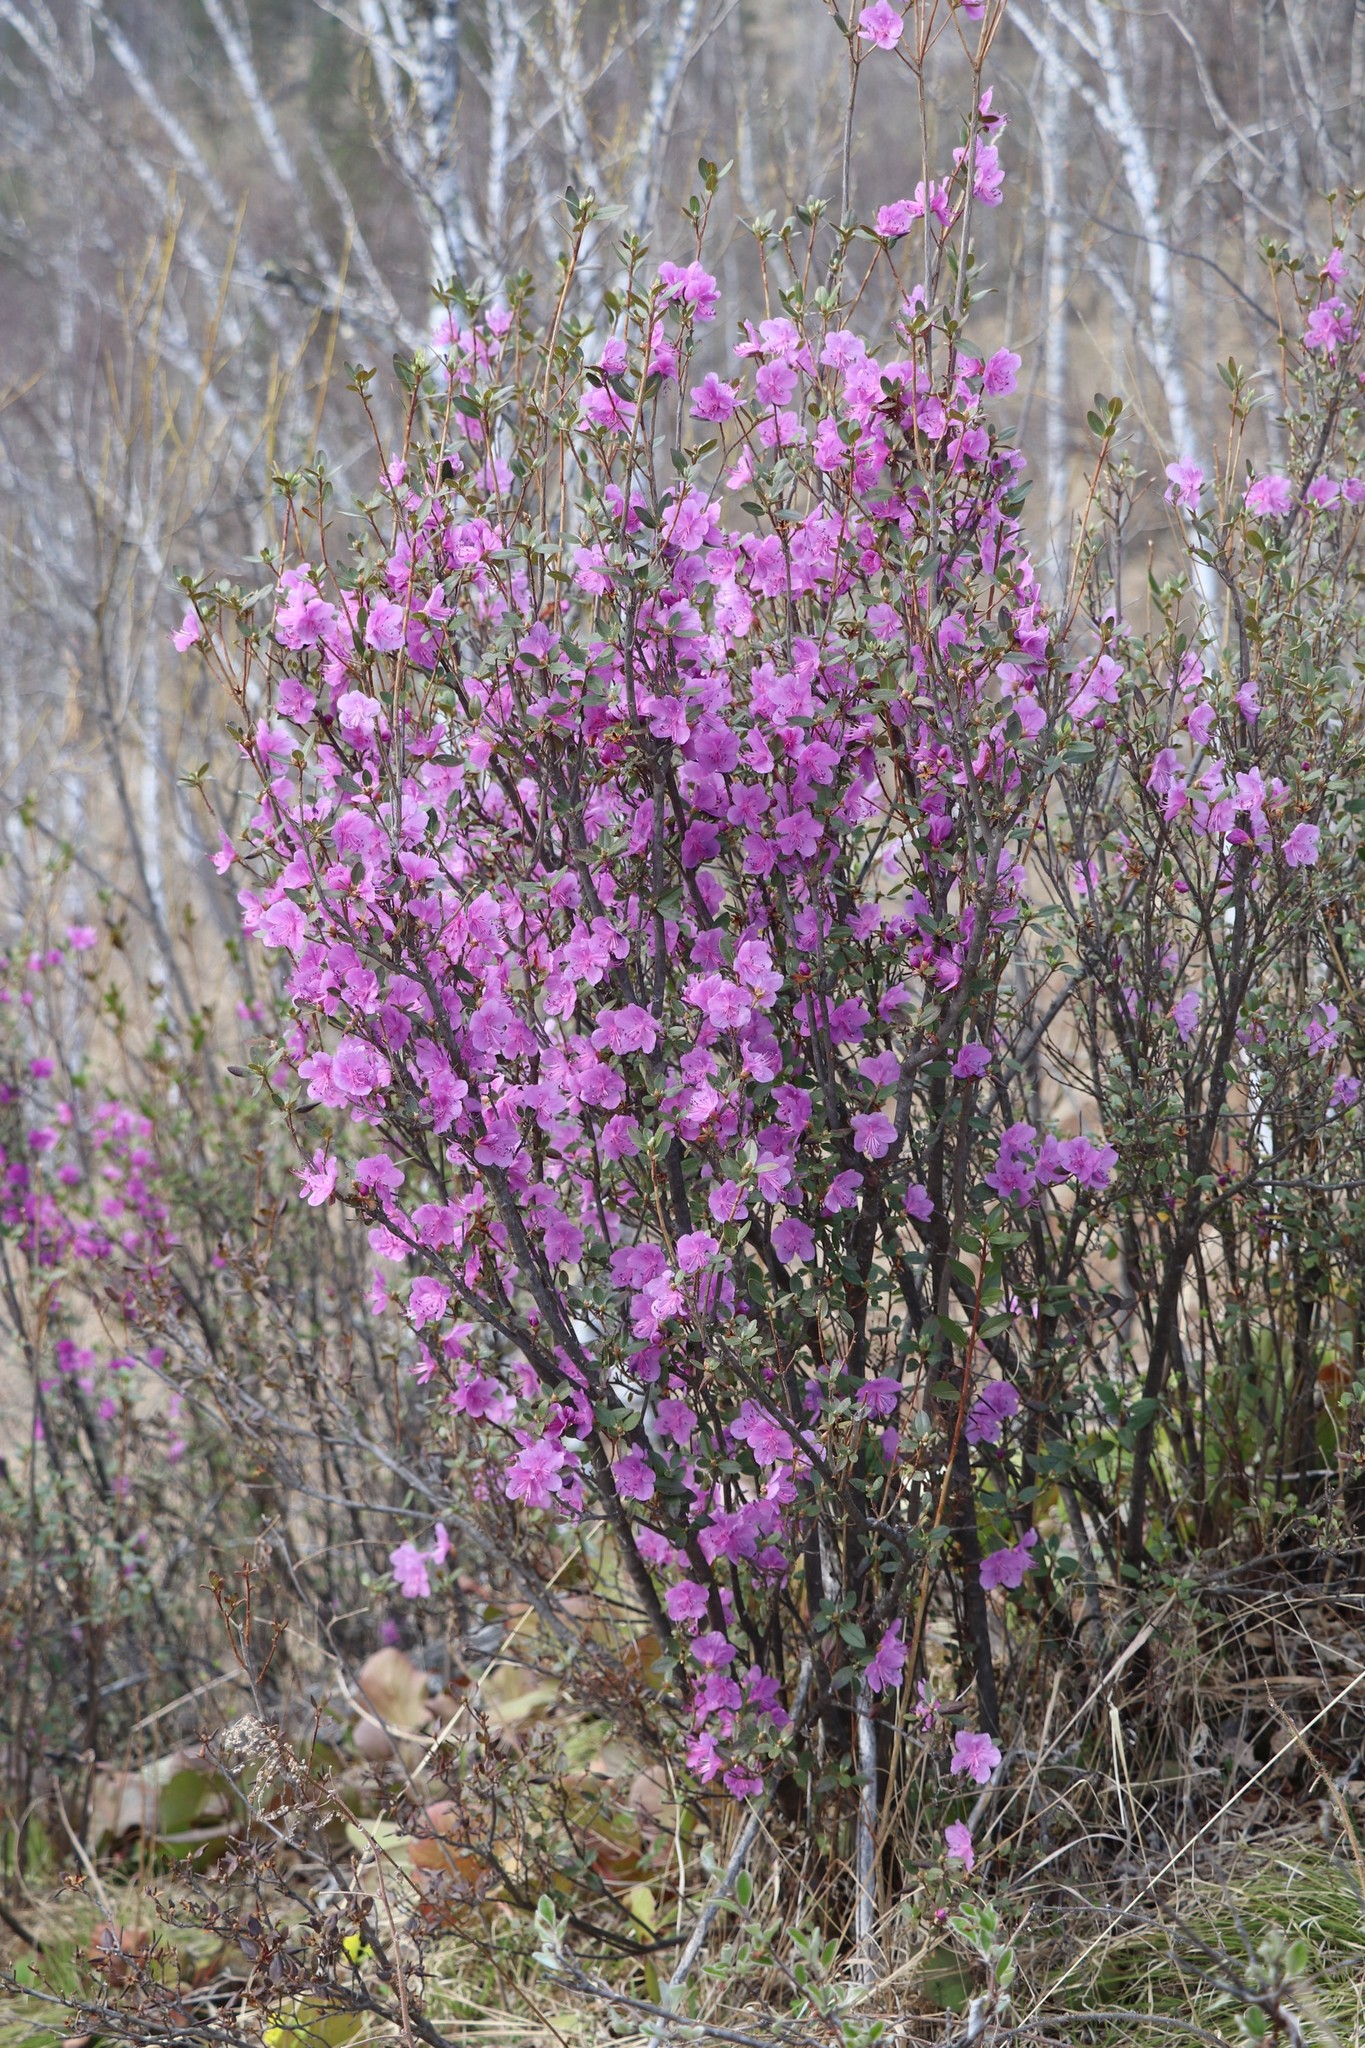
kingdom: Plantae
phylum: Tracheophyta
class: Magnoliopsida
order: Ericales
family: Ericaceae
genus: Rhododendron
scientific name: Rhododendron dauricum
